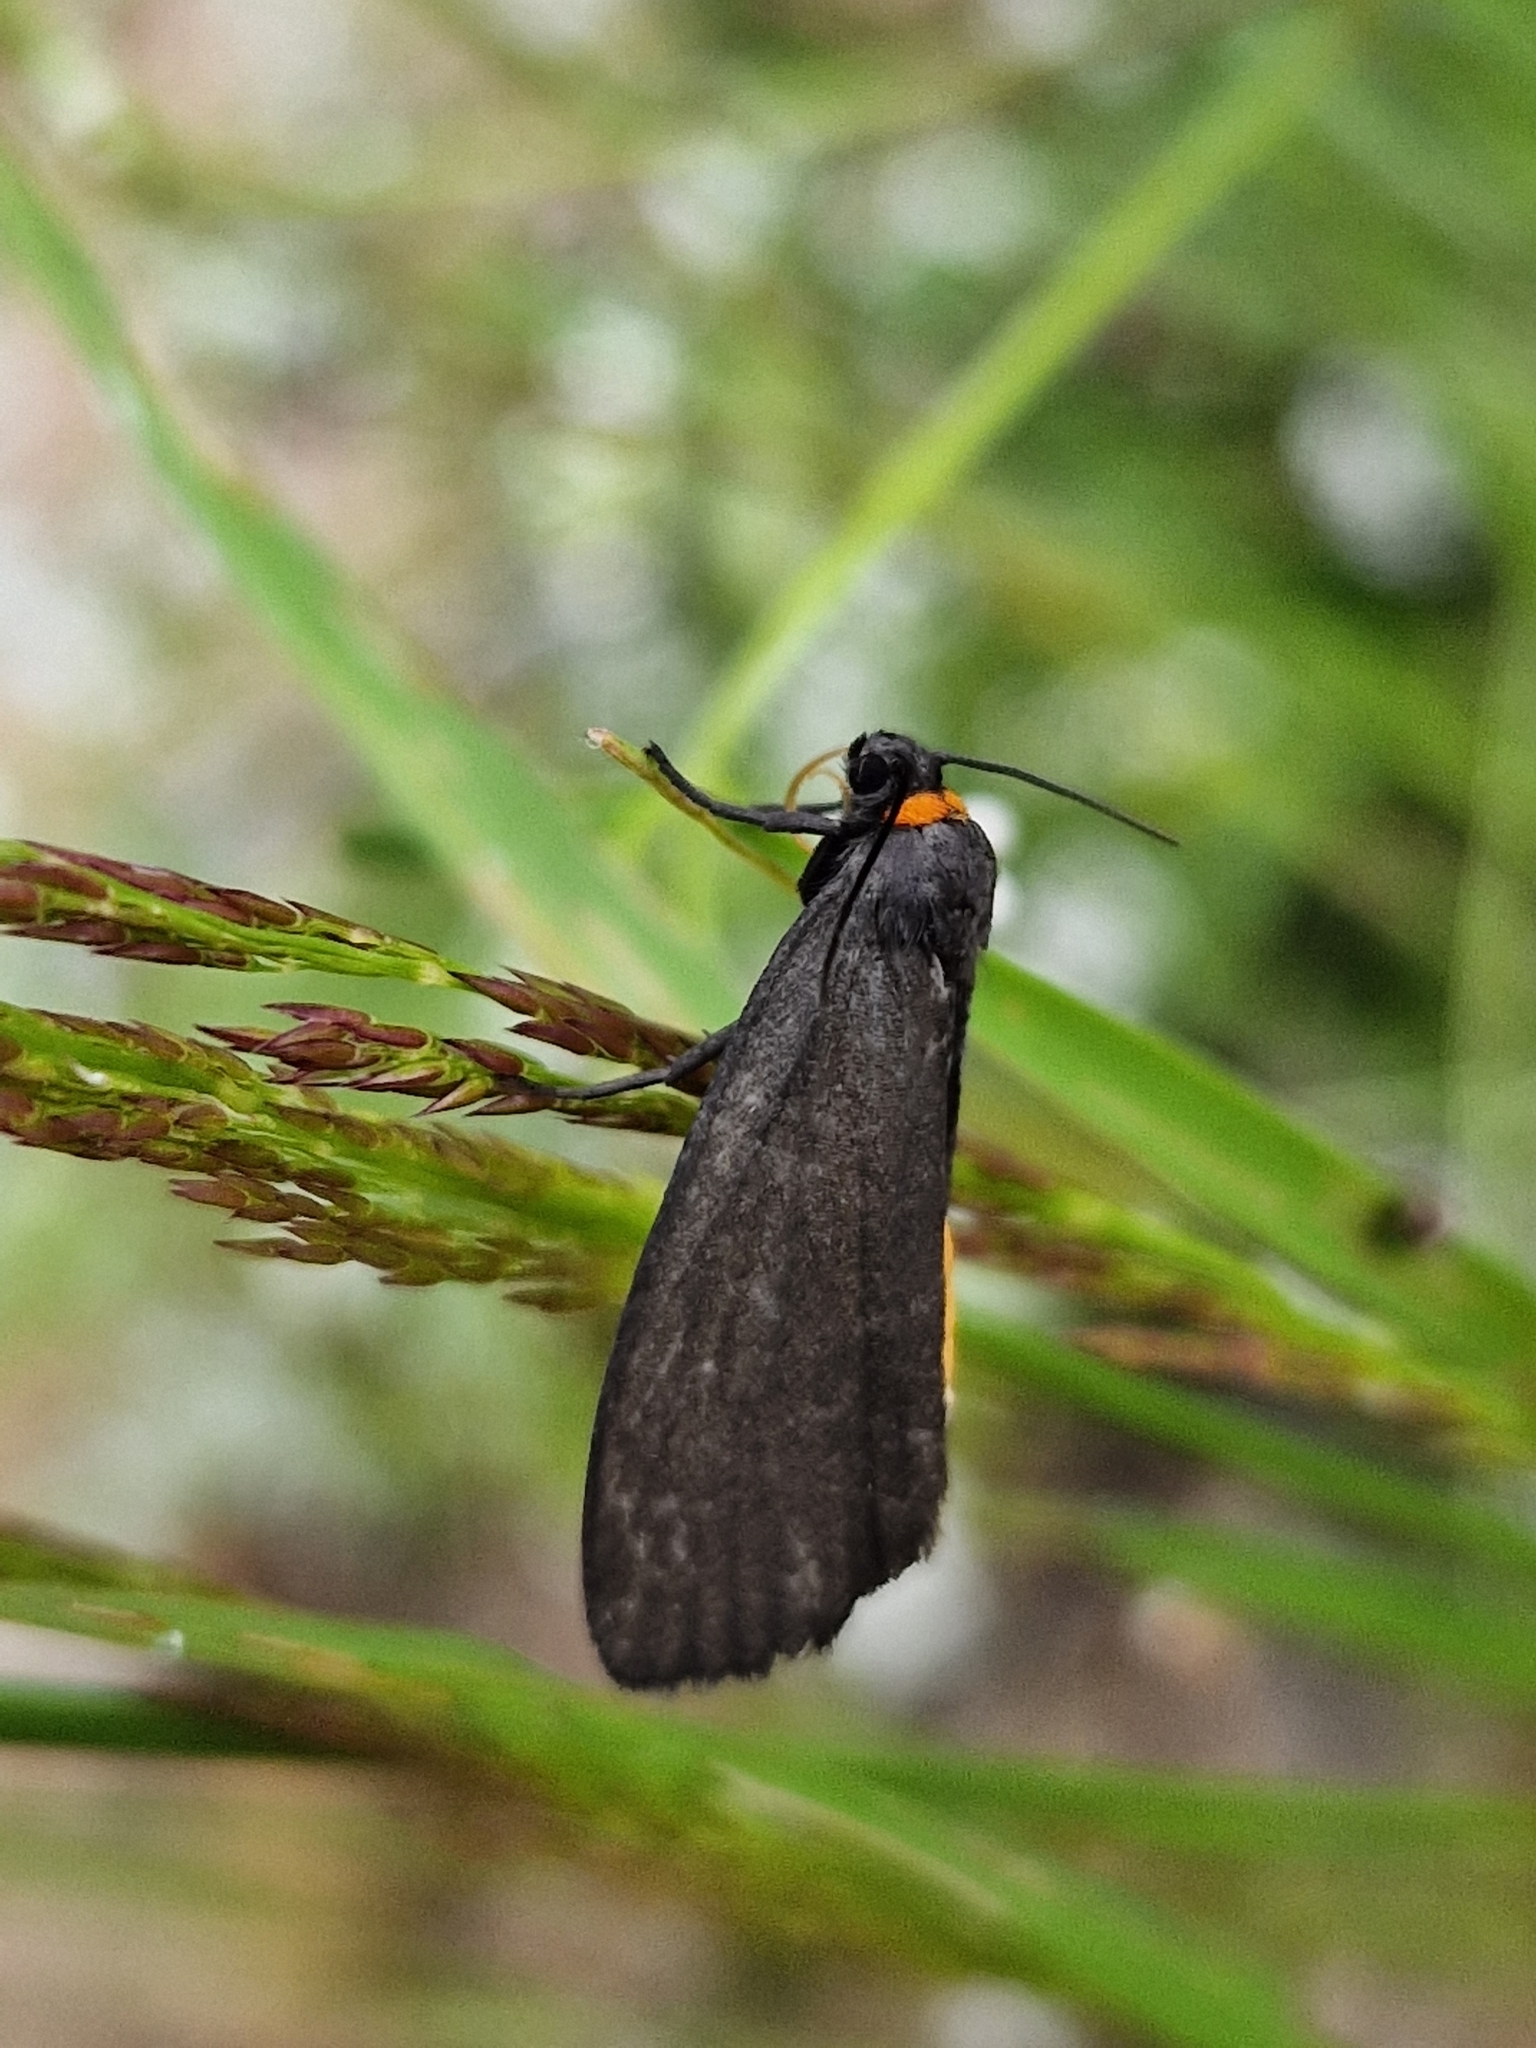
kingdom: Animalia
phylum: Arthropoda
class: Insecta
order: Lepidoptera
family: Erebidae
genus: Atolmis
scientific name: Atolmis rubricollis
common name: Red-necked footman
